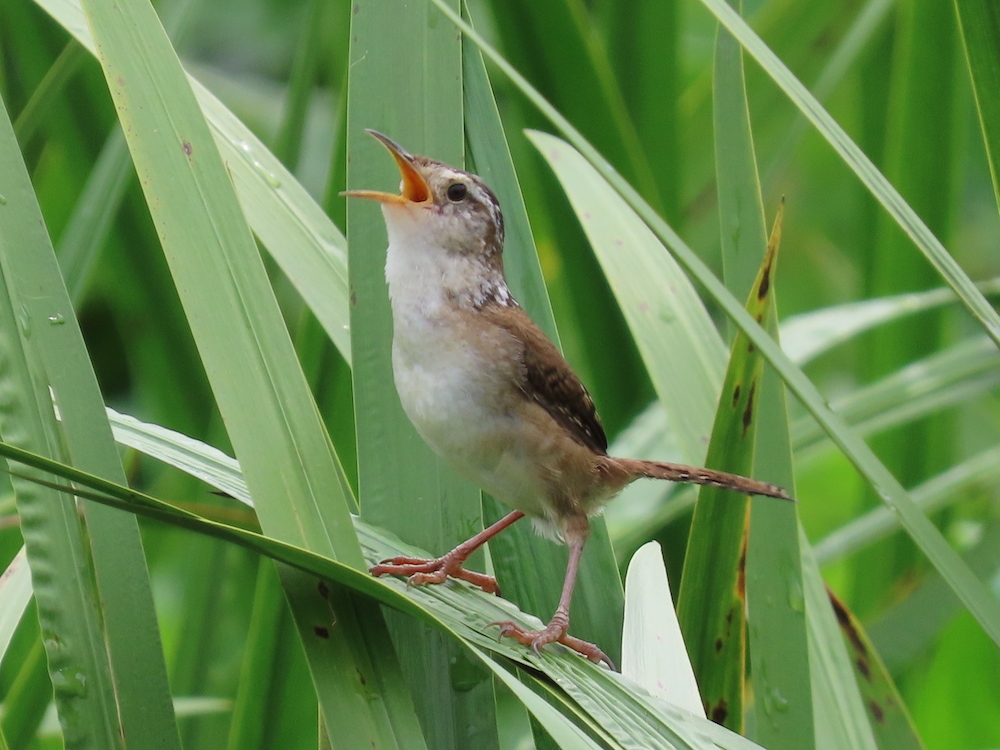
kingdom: Animalia
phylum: Chordata
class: Aves
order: Passeriformes
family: Troglodytidae
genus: Cistothorus
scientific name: Cistothorus palustris
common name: Marsh wren
